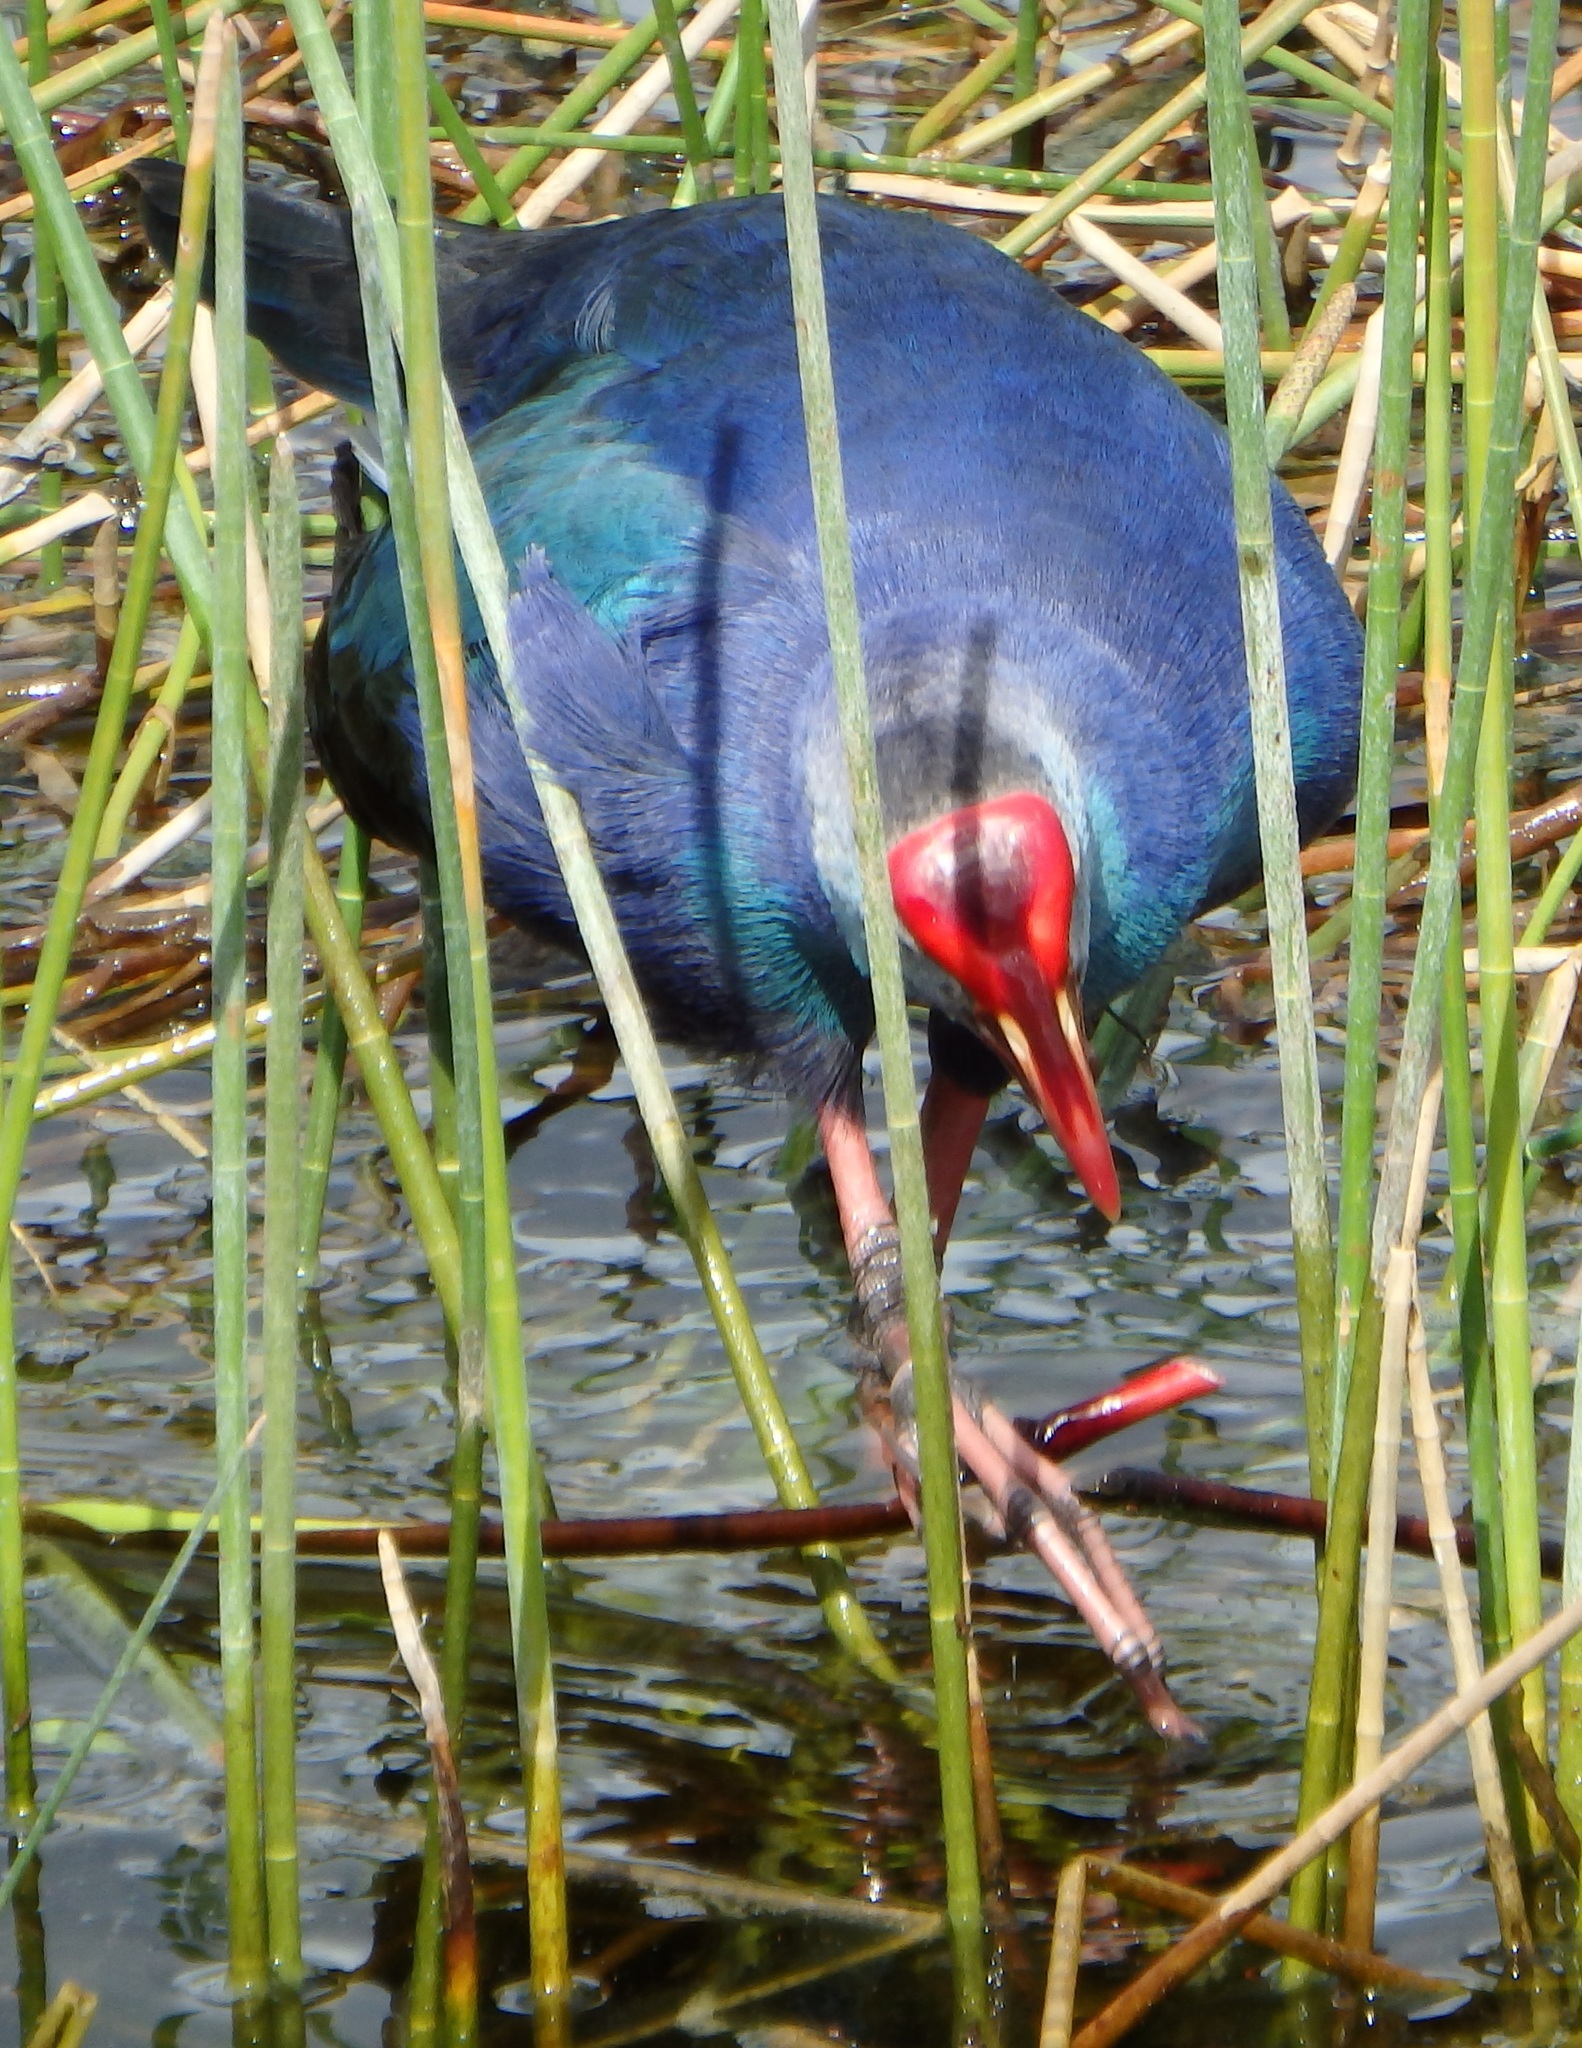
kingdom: Animalia
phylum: Chordata
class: Aves
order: Gruiformes
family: Rallidae
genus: Porphyrio
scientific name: Porphyrio porphyrio
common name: Purple swamphen
